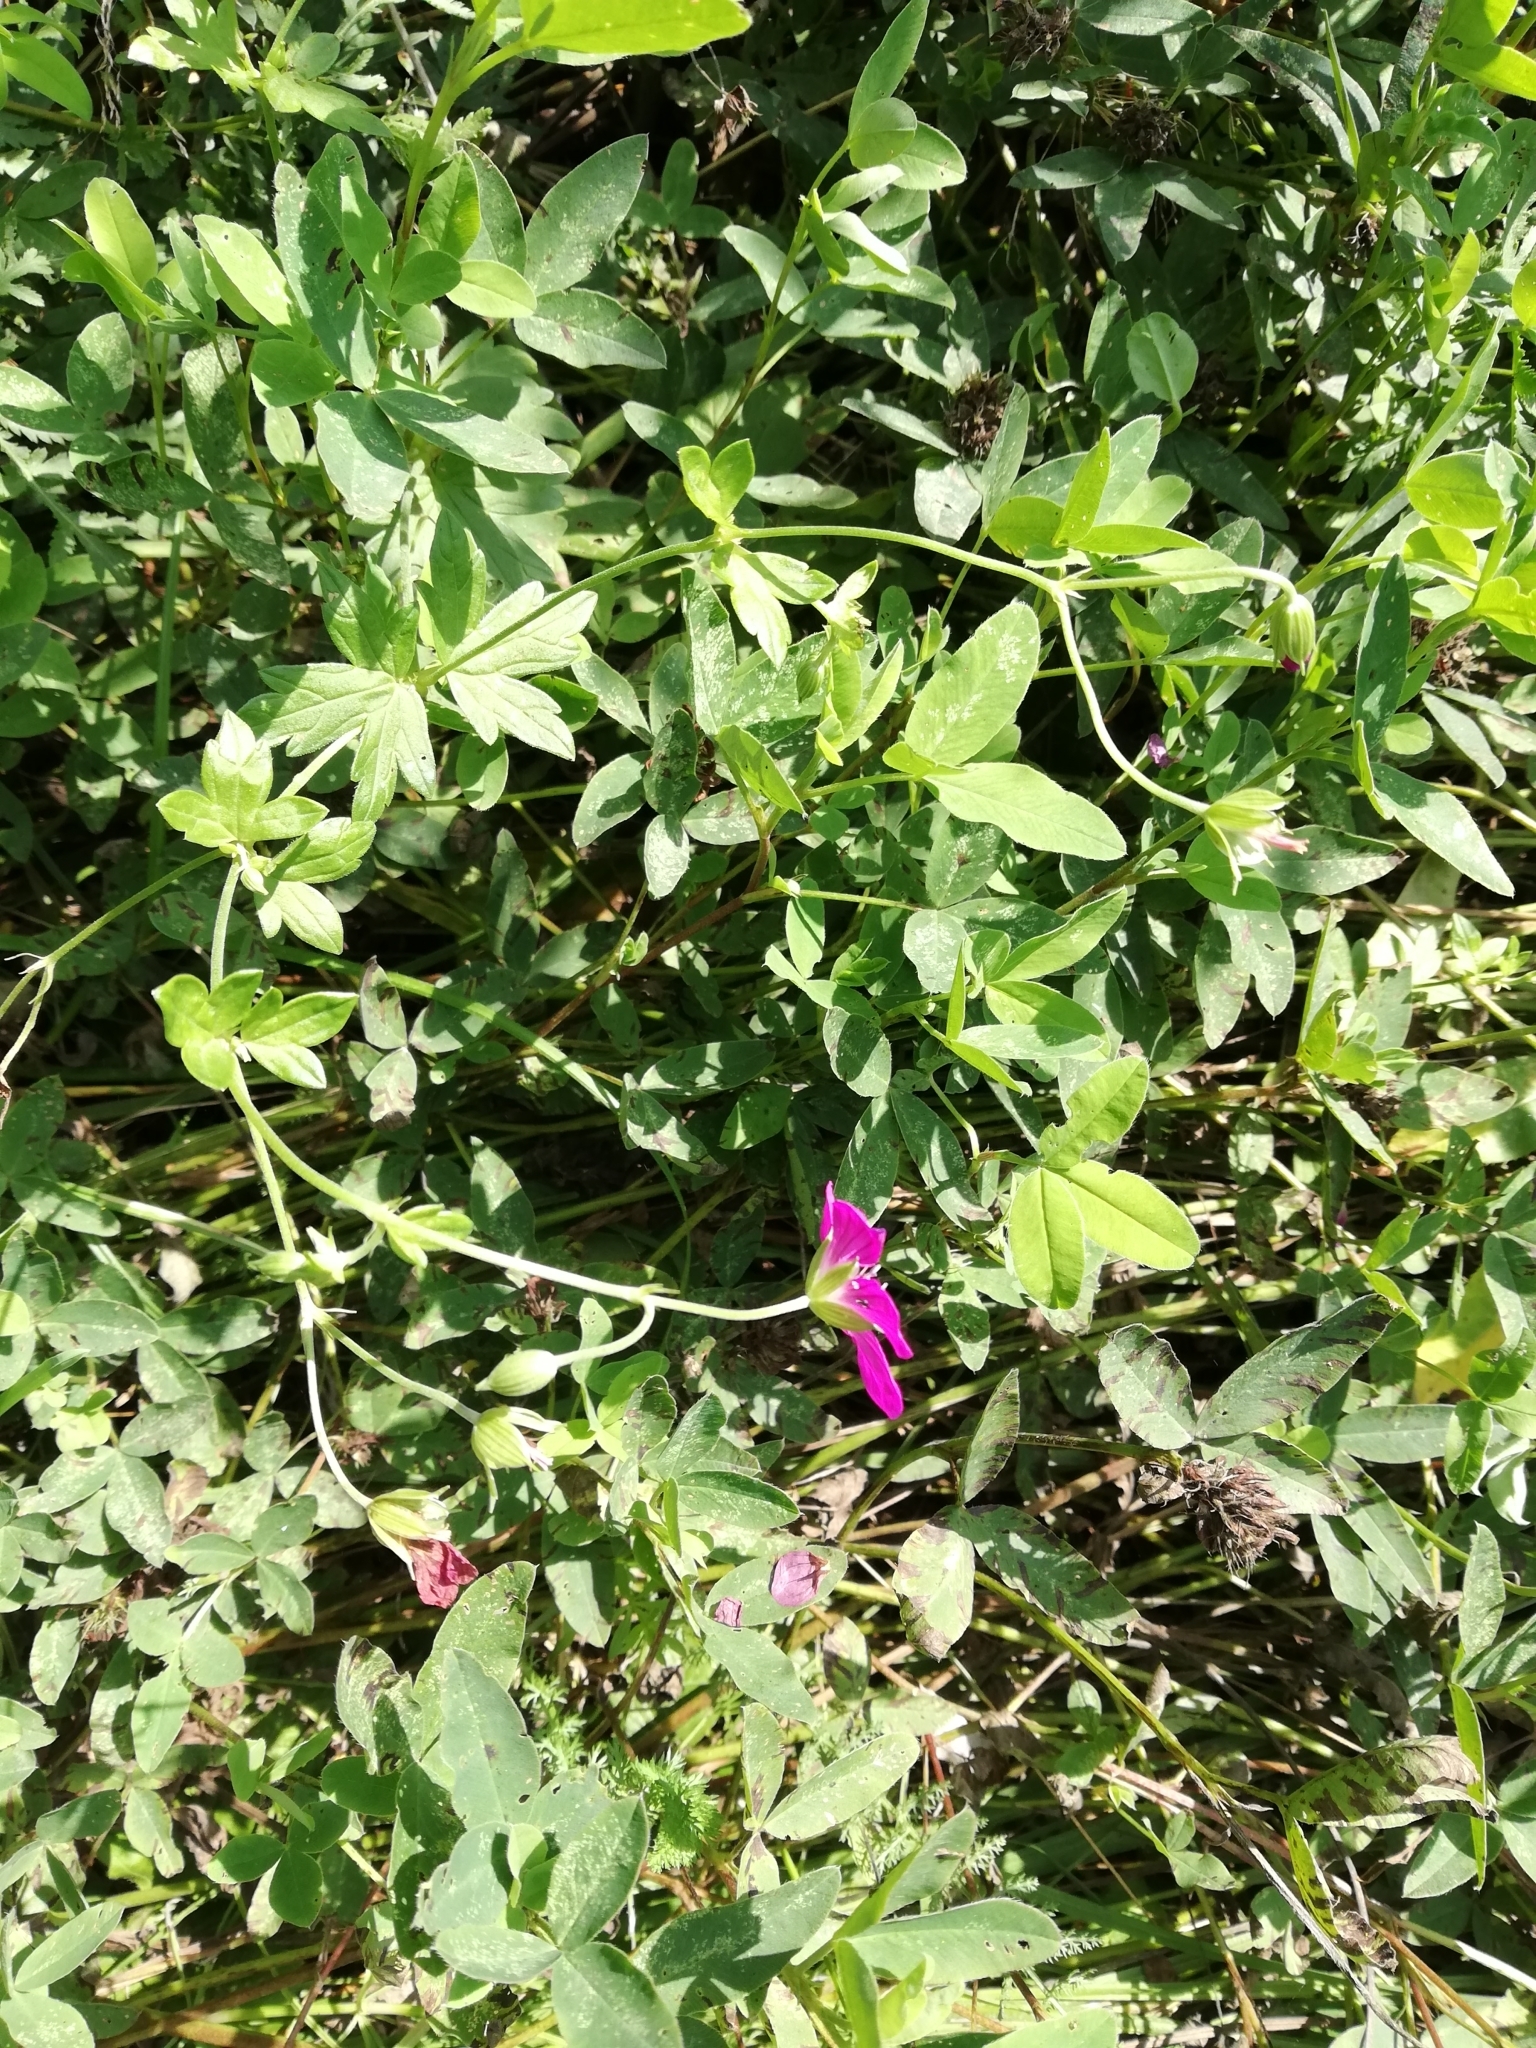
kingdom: Plantae
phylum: Tracheophyta
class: Magnoliopsida
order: Geraniales
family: Geraniaceae
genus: Geranium
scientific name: Geranium palustre
